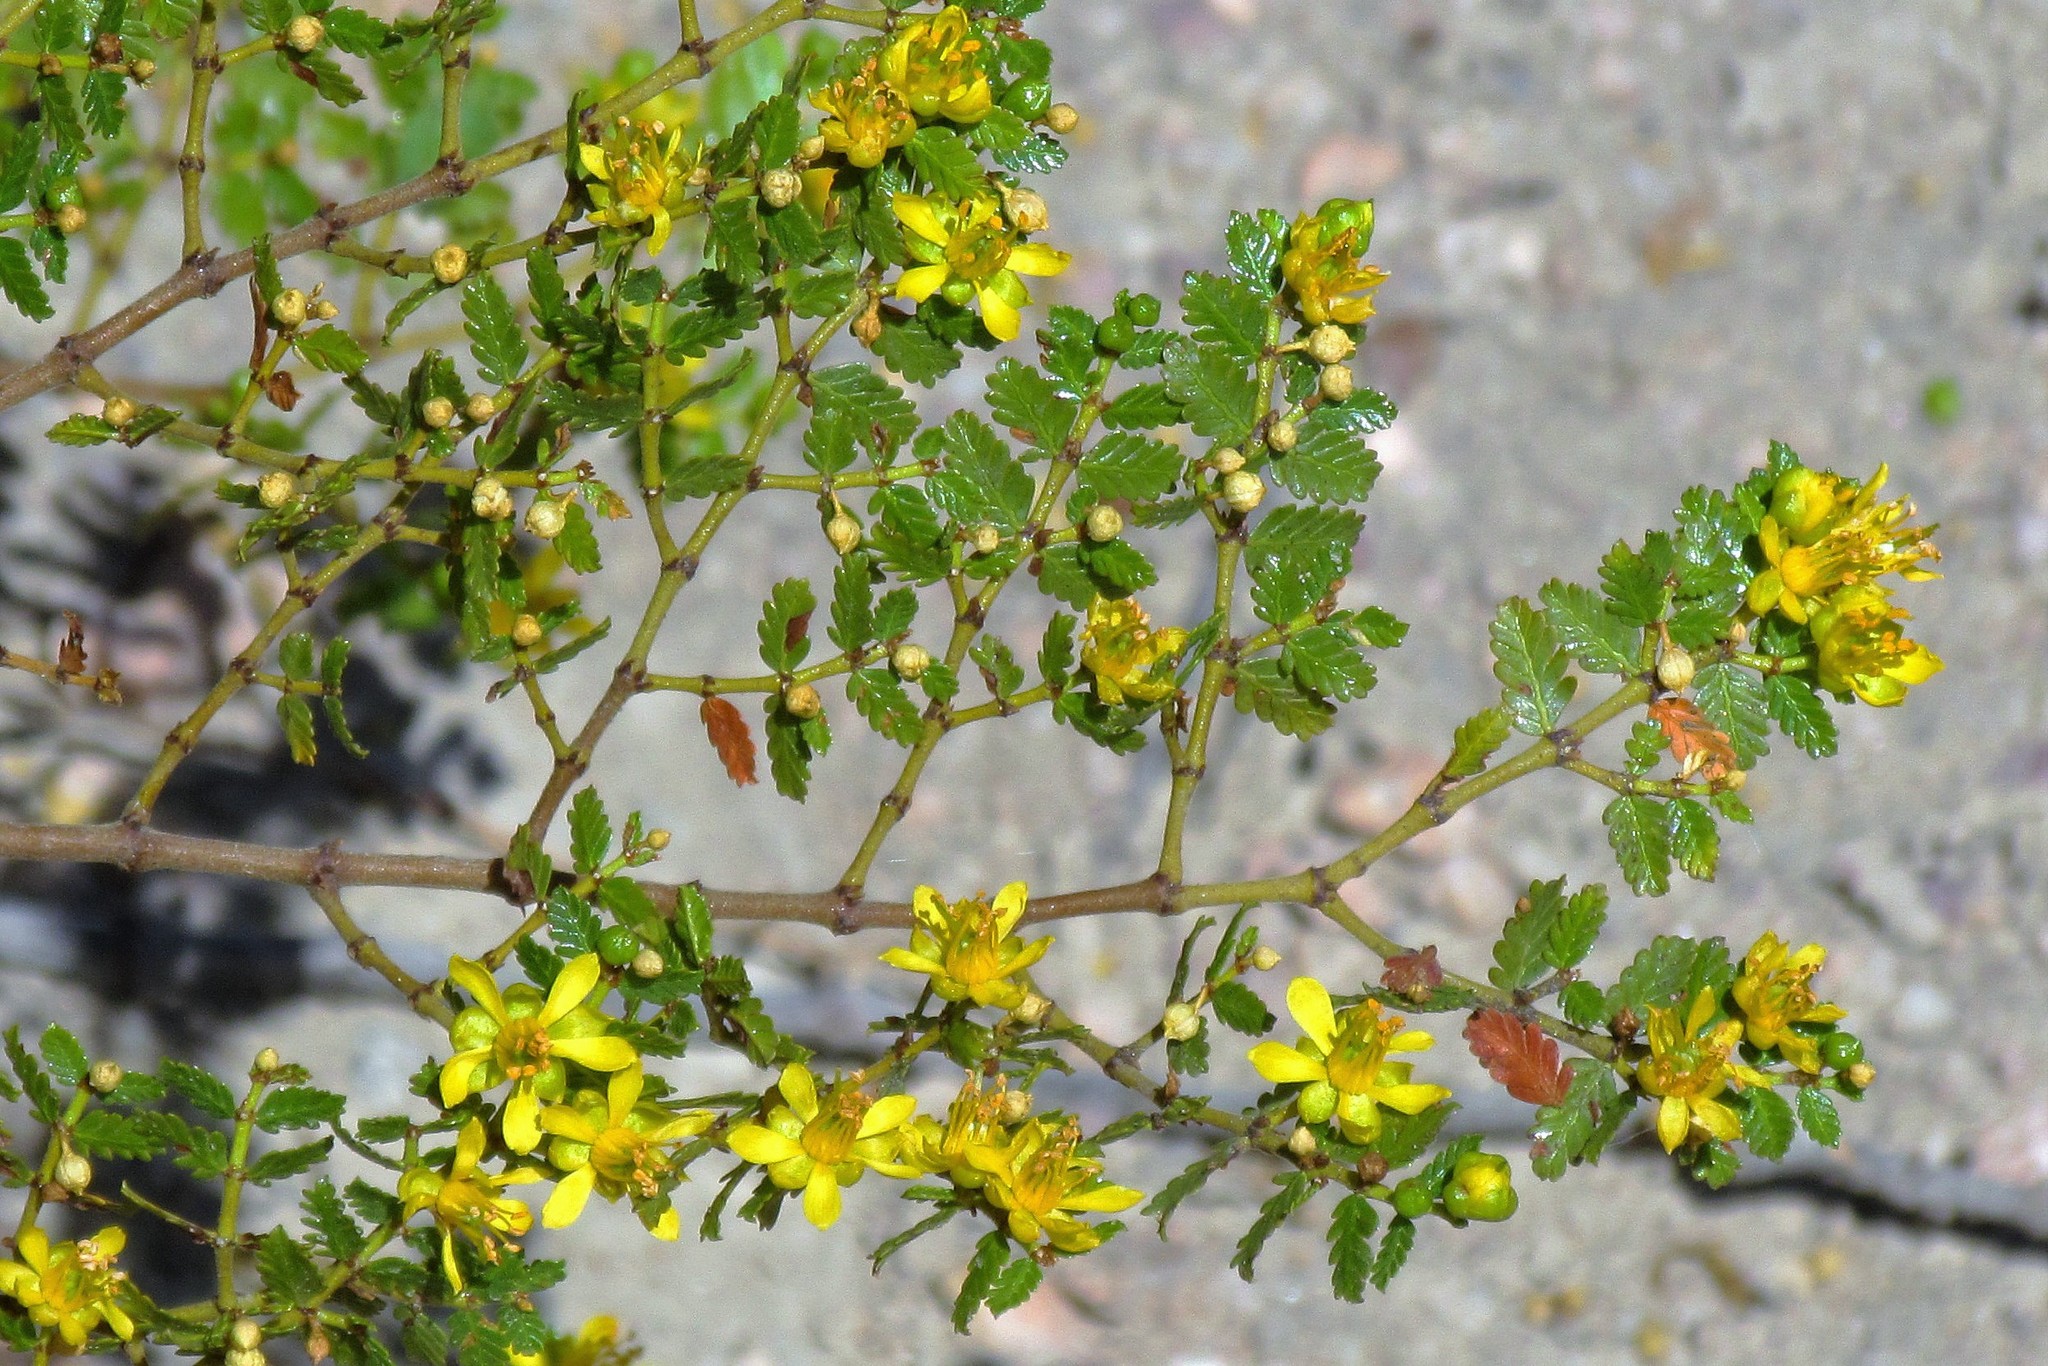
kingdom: Plantae
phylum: Tracheophyta
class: Magnoliopsida
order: Zygophyllales
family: Zygophyllaceae
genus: Larrea
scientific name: Larrea nitida
